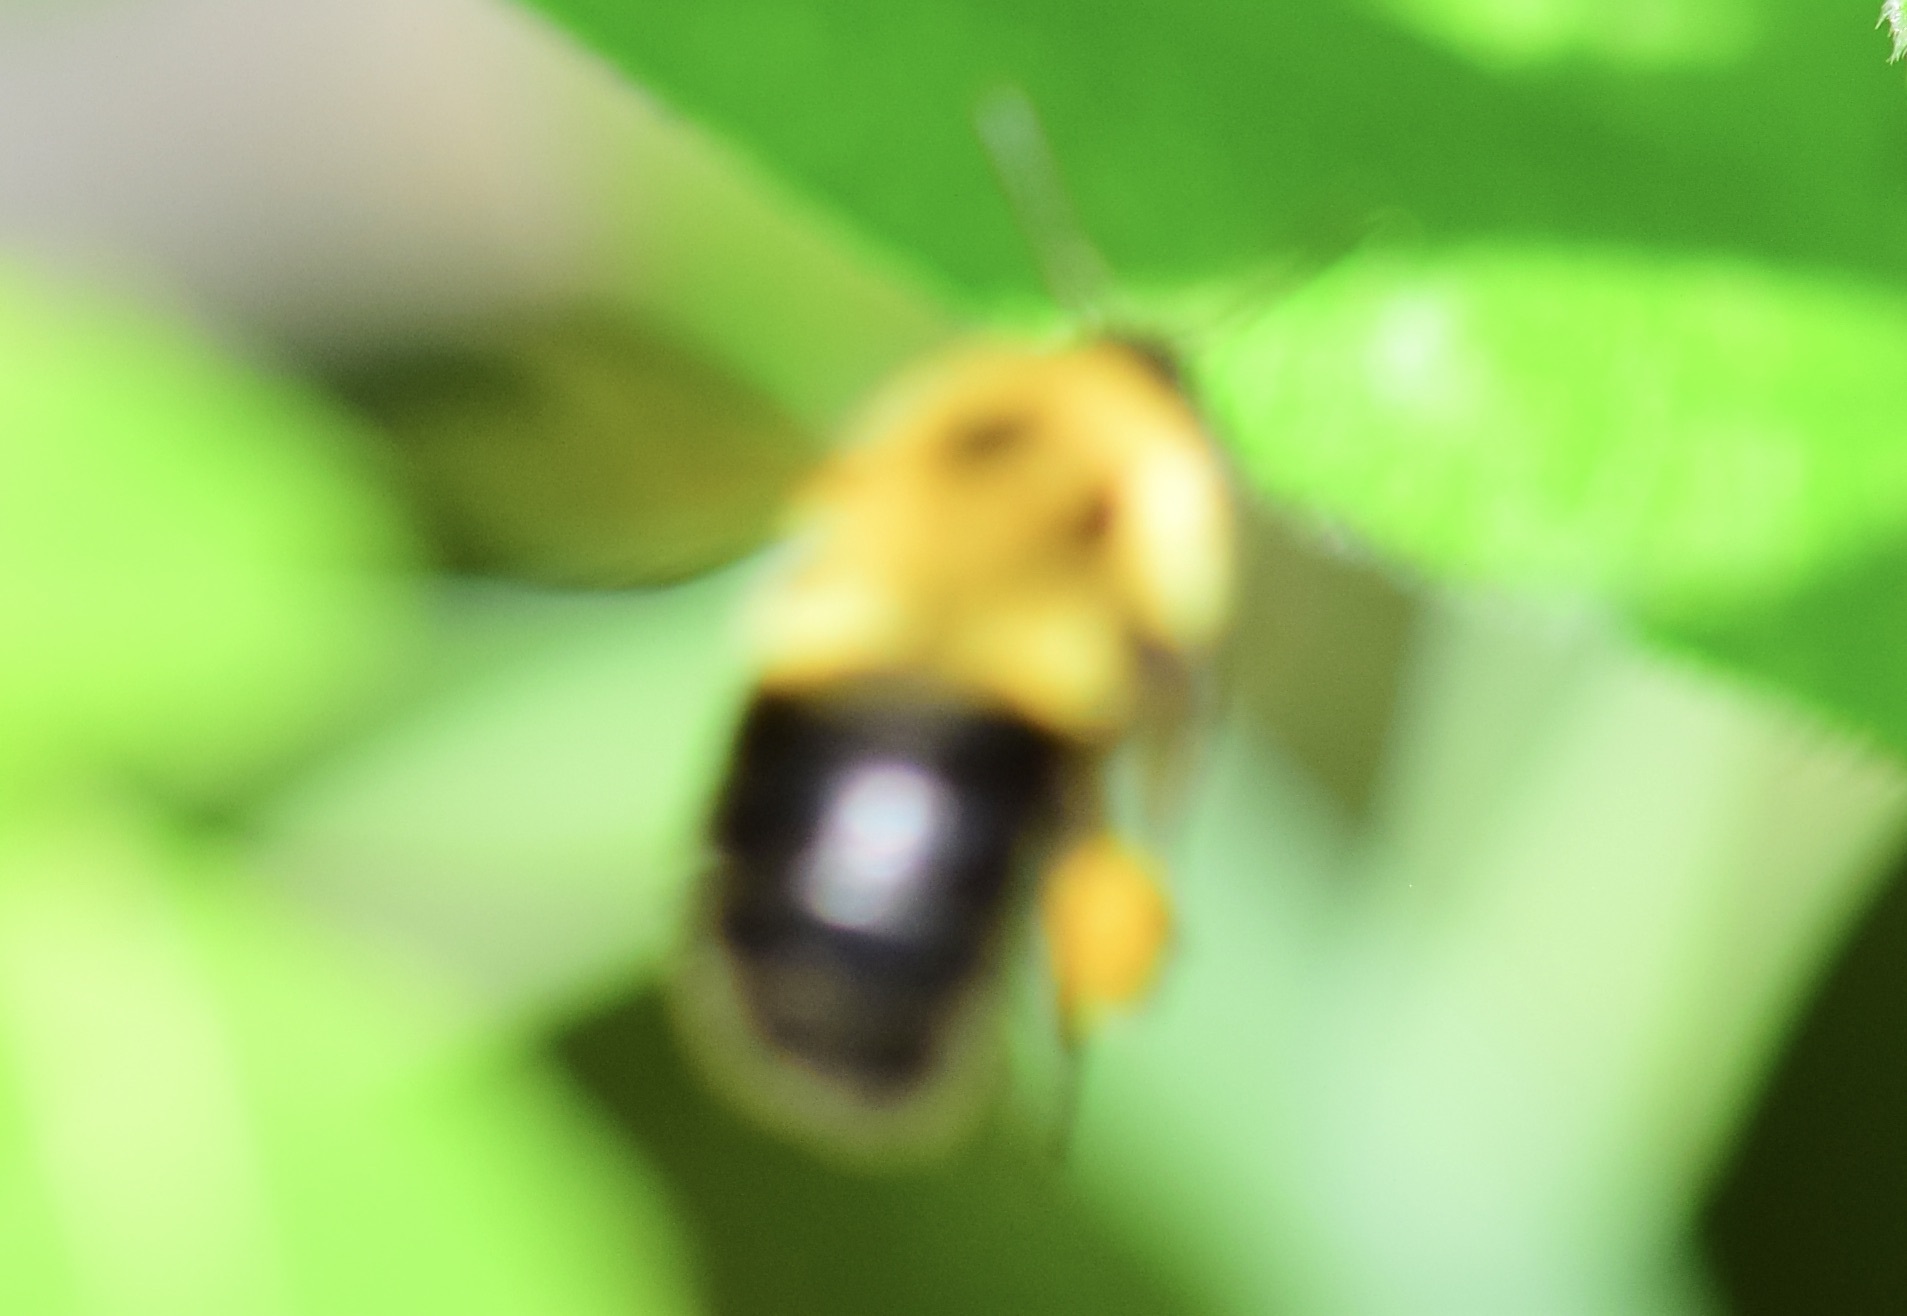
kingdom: Animalia
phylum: Arthropoda
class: Insecta
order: Hymenoptera
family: Apidae
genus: Bombus
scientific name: Bombus bimaculatus
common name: Two-spotted bumble bee
